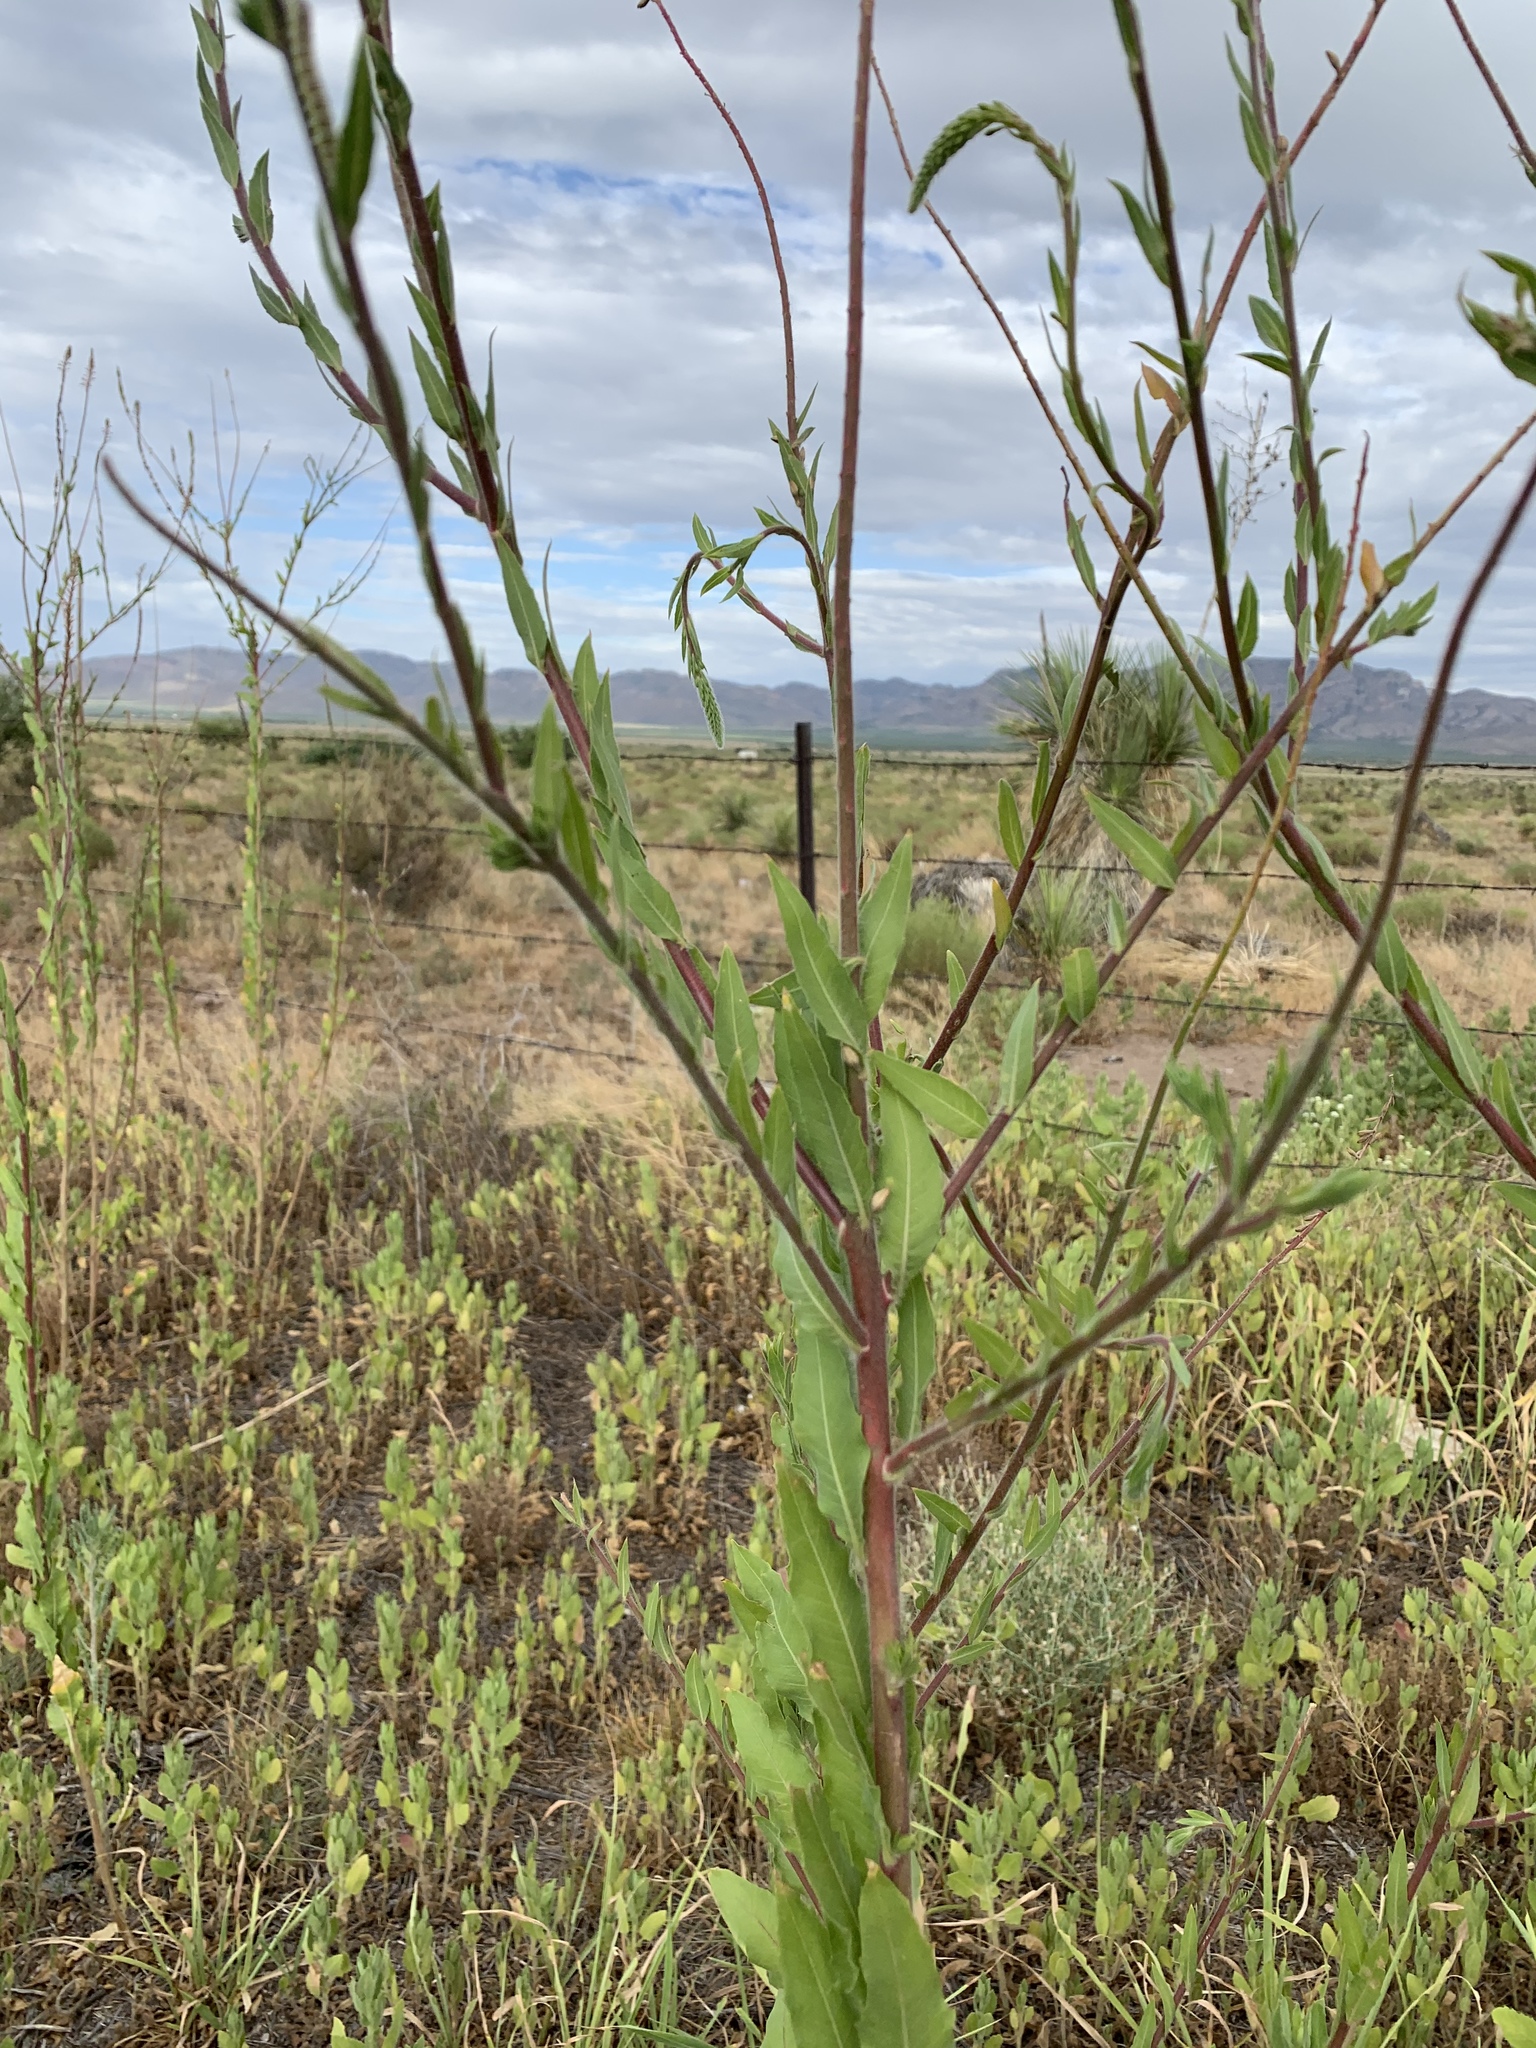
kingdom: Plantae
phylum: Tracheophyta
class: Magnoliopsida
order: Myrtales
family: Onagraceae
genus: Oenothera
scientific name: Oenothera curtiflora
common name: Velvetweed
